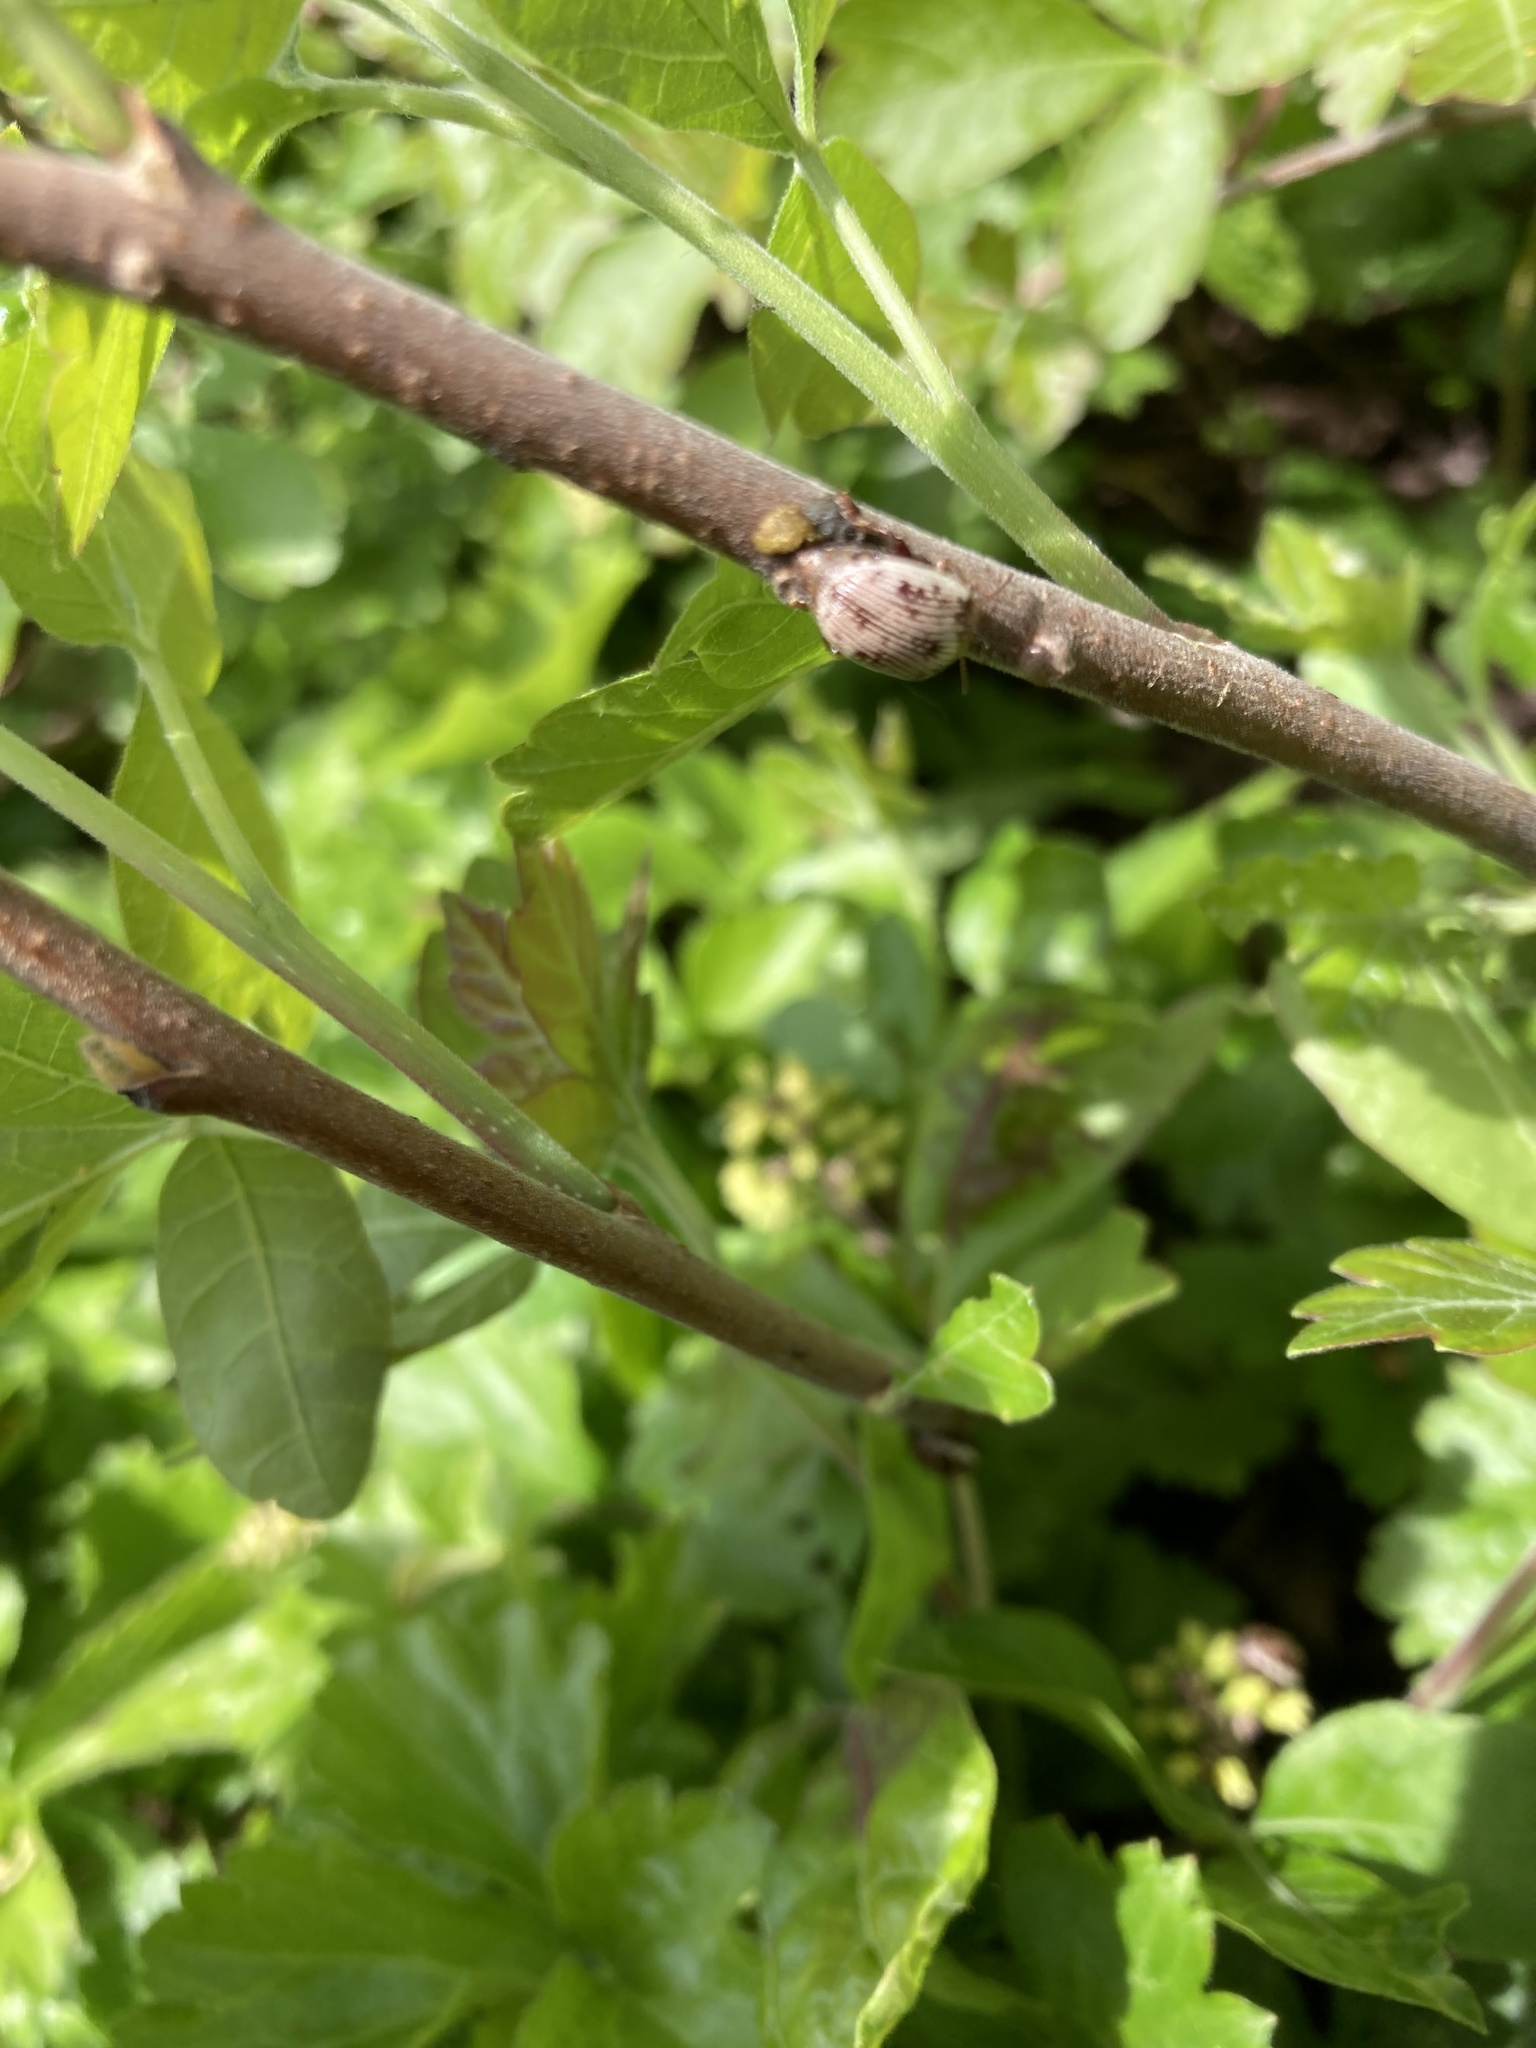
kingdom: Animalia
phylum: Arthropoda
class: Insecta
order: Coleoptera
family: Chrysomelidae
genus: Blepharida
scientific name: Blepharida rhois
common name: Sumac flea beetle
